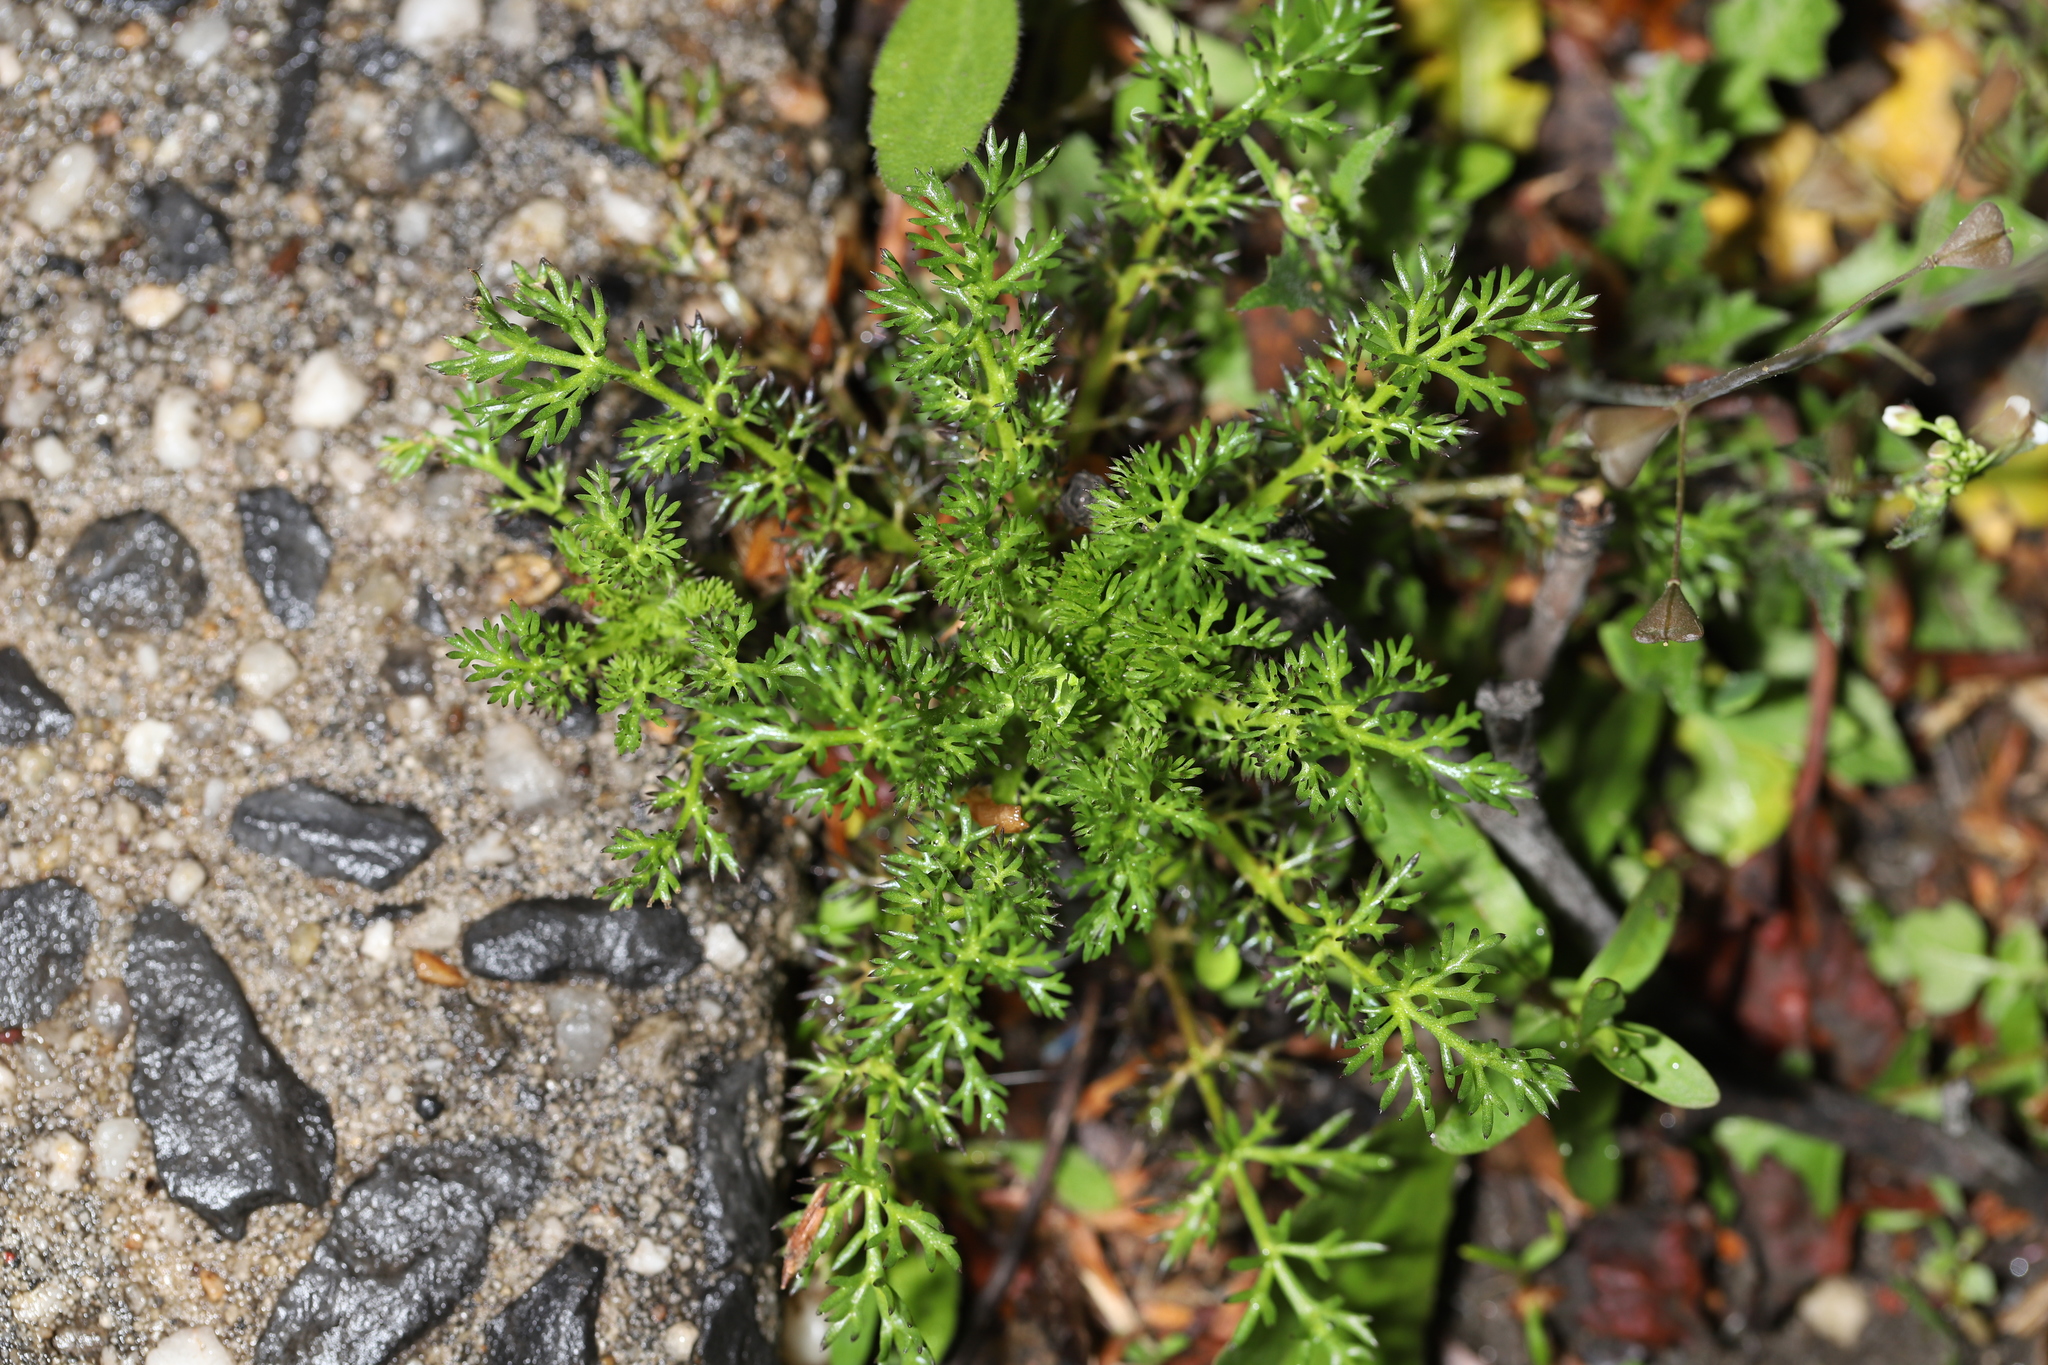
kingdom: Plantae
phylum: Tracheophyta
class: Magnoliopsida
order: Asterales
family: Asteraceae
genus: Matricaria
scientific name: Matricaria discoidea
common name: Disc mayweed
